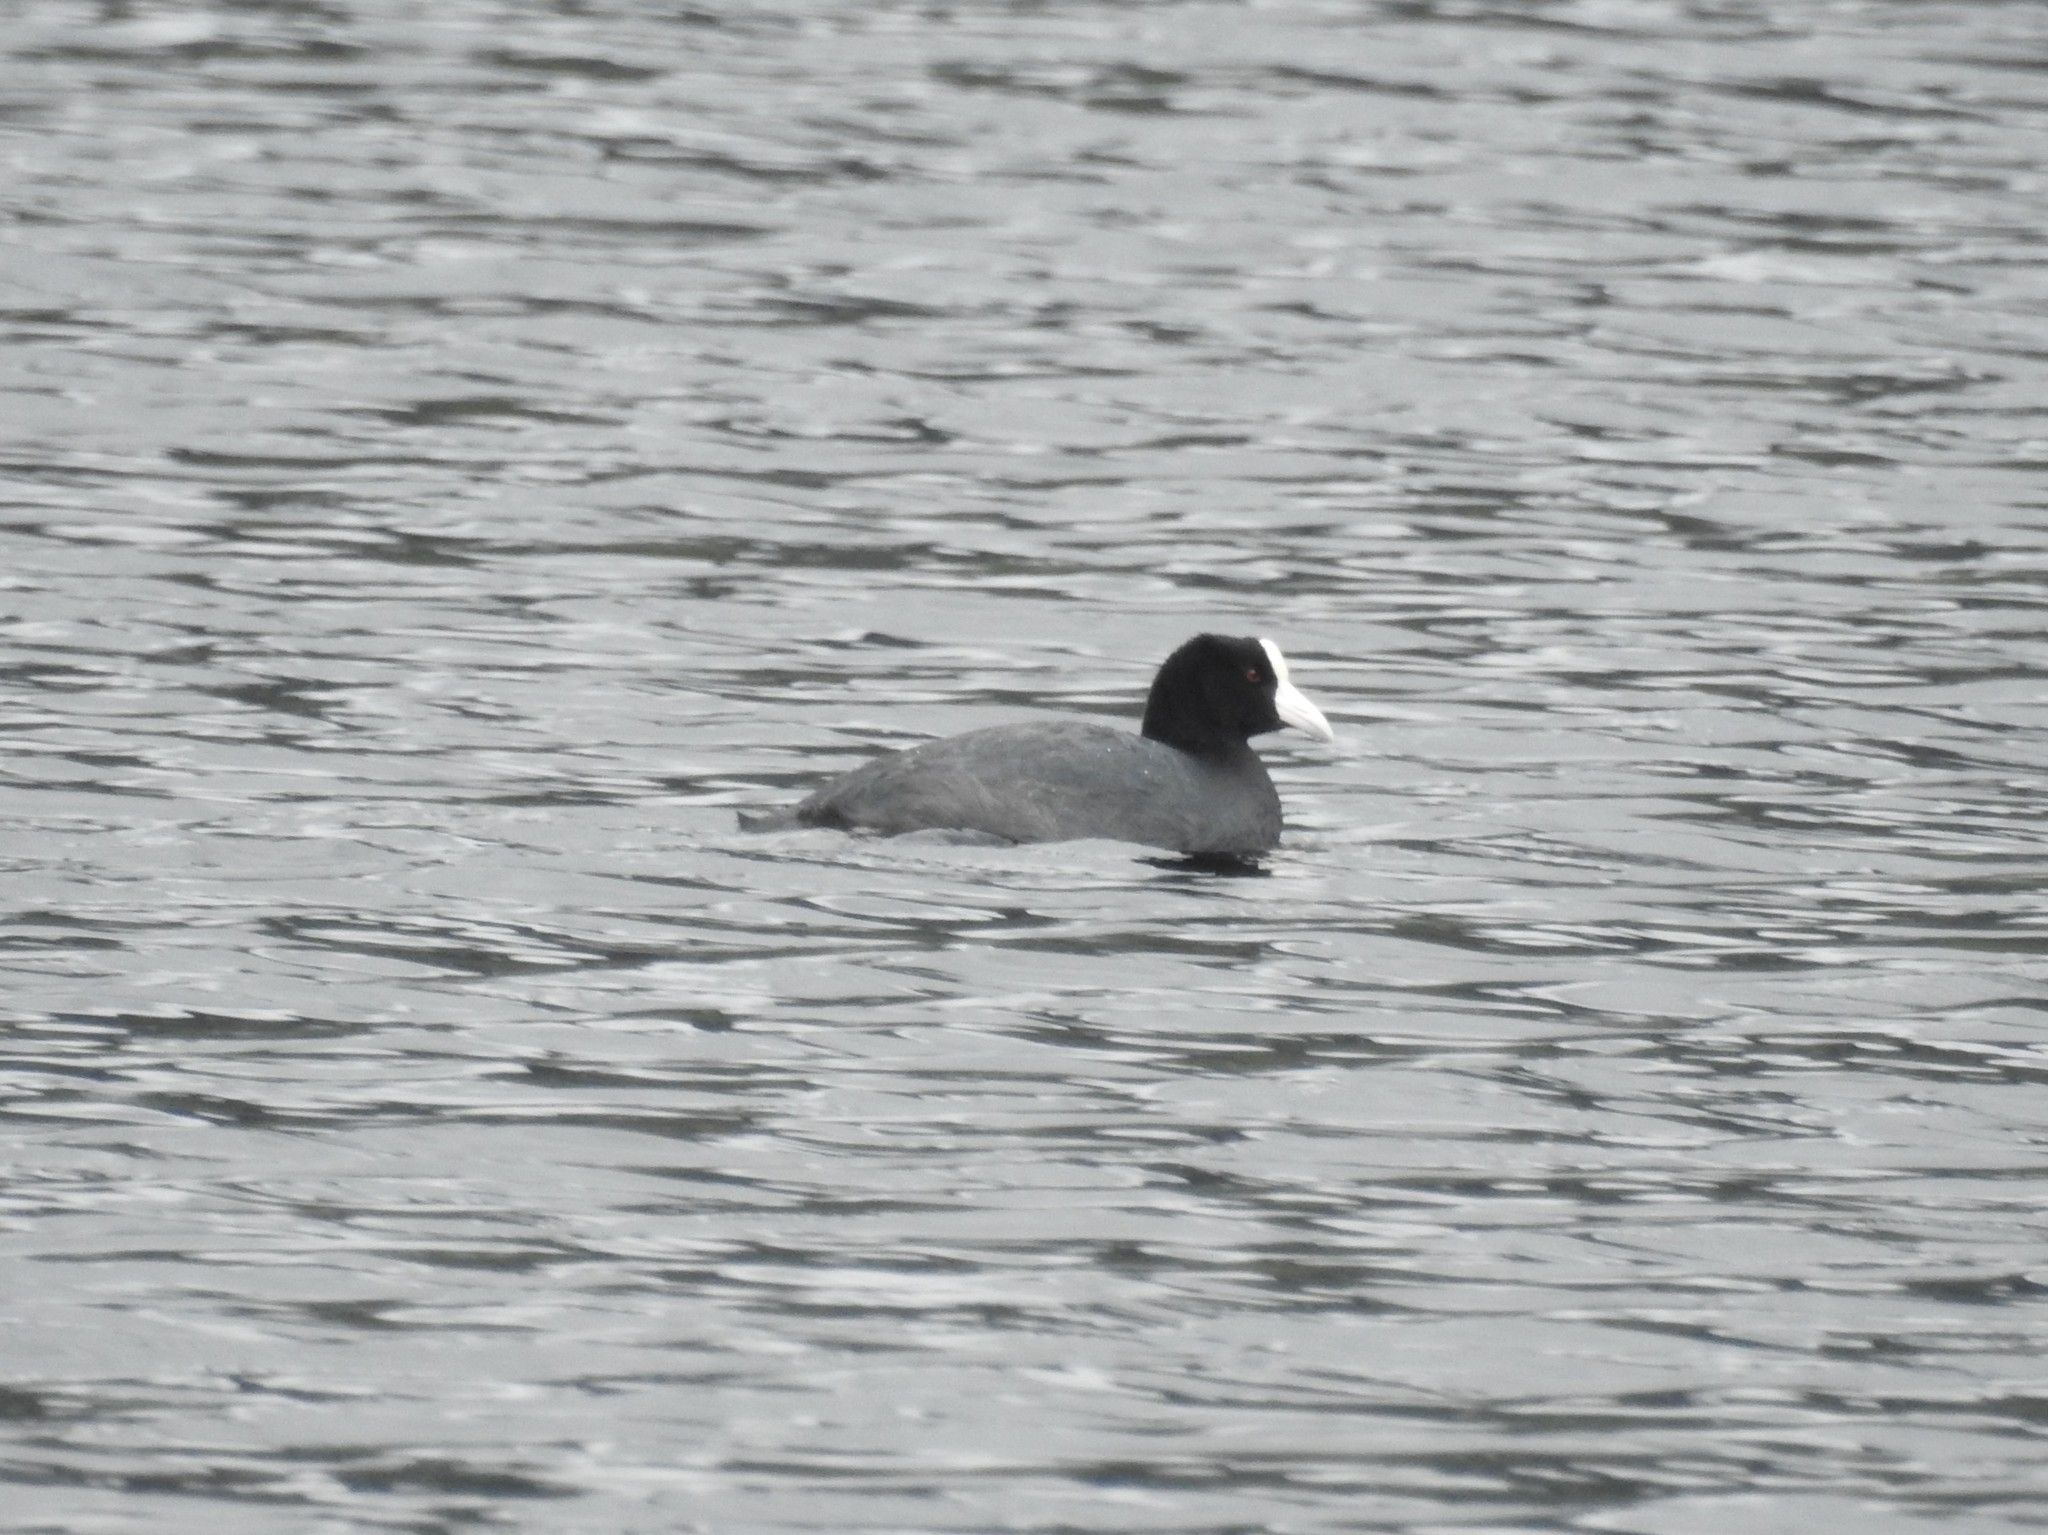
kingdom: Animalia
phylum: Chordata
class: Aves
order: Gruiformes
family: Rallidae
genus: Fulica
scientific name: Fulica ardesiaca
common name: Andean coot
